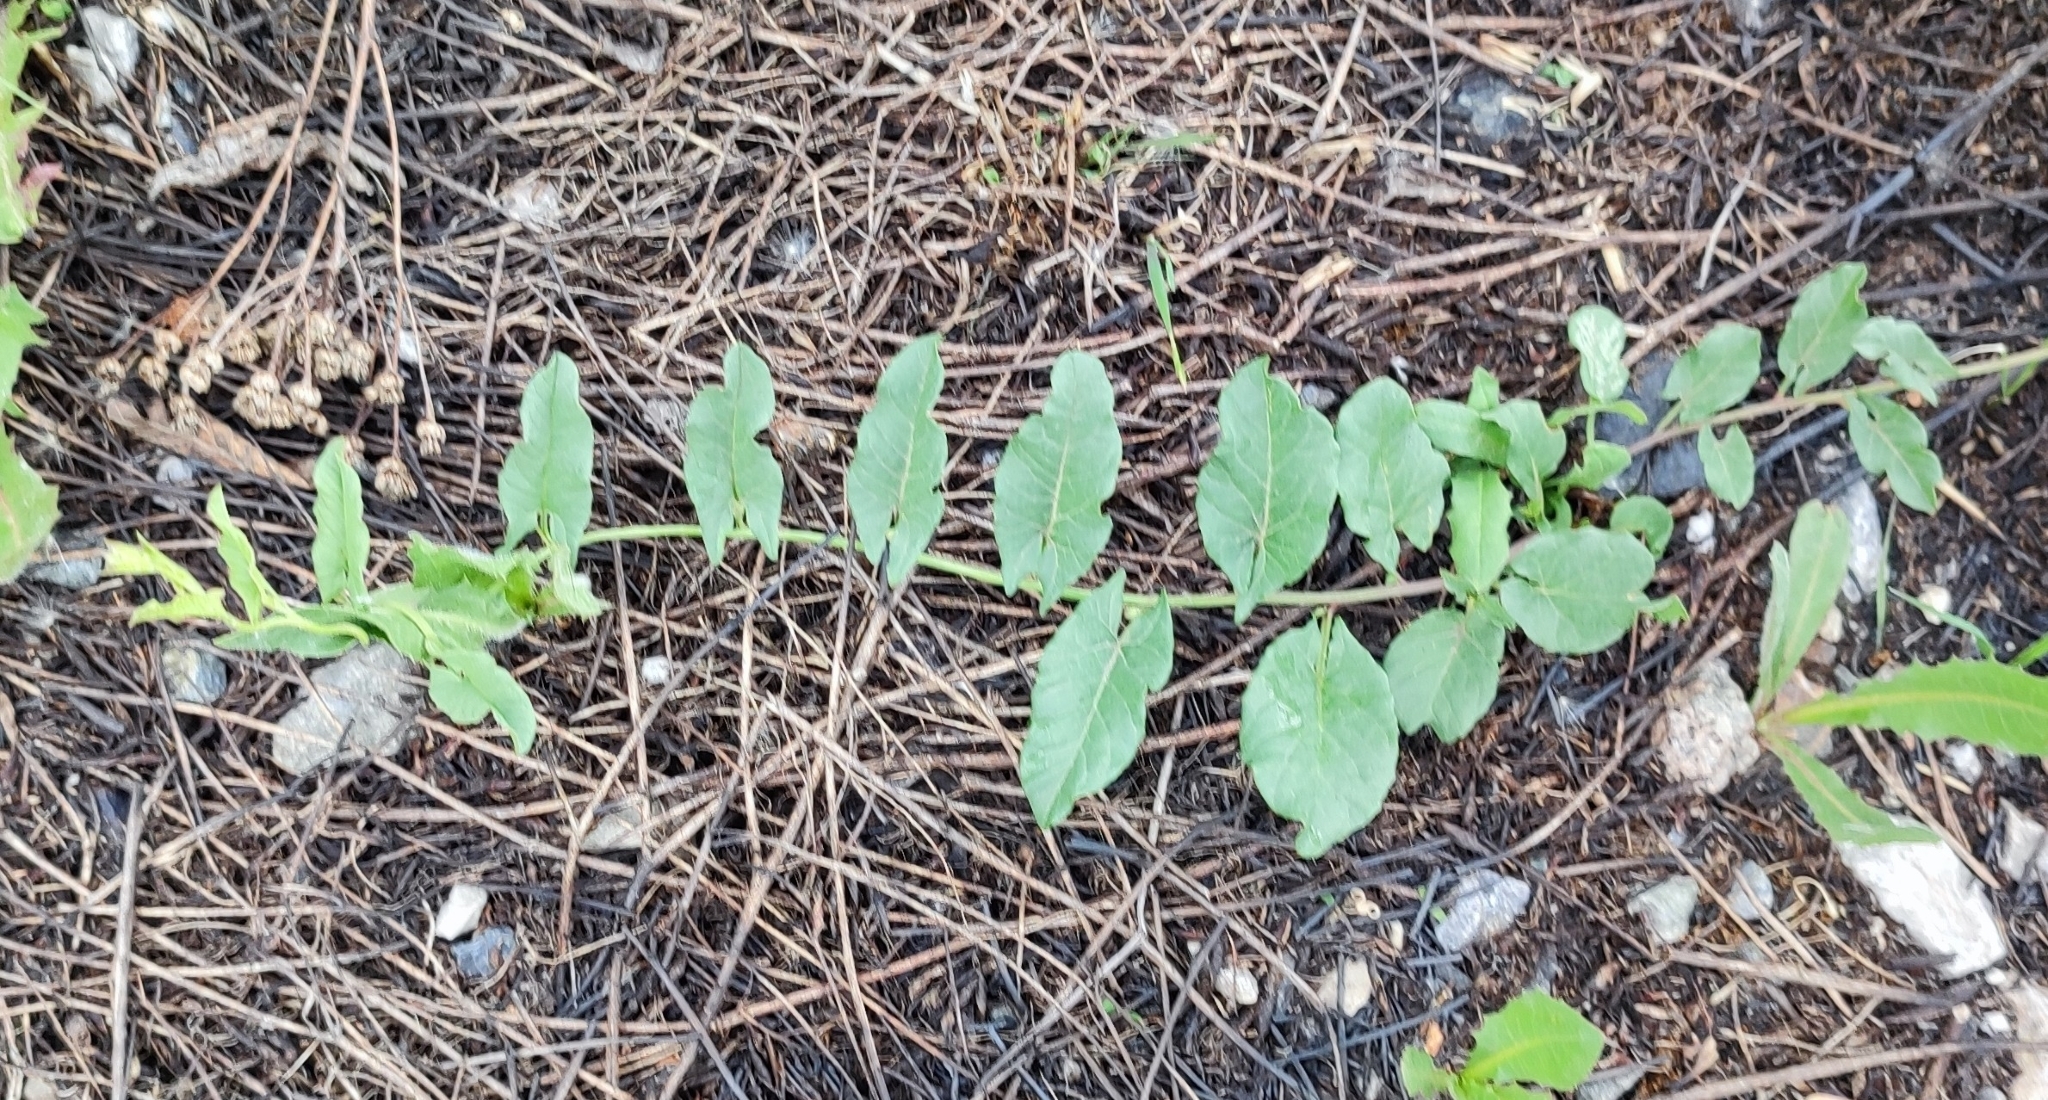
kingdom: Plantae
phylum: Tracheophyta
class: Magnoliopsida
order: Solanales
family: Convolvulaceae
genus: Convolvulus
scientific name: Convolvulus arvensis
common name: Field bindweed
